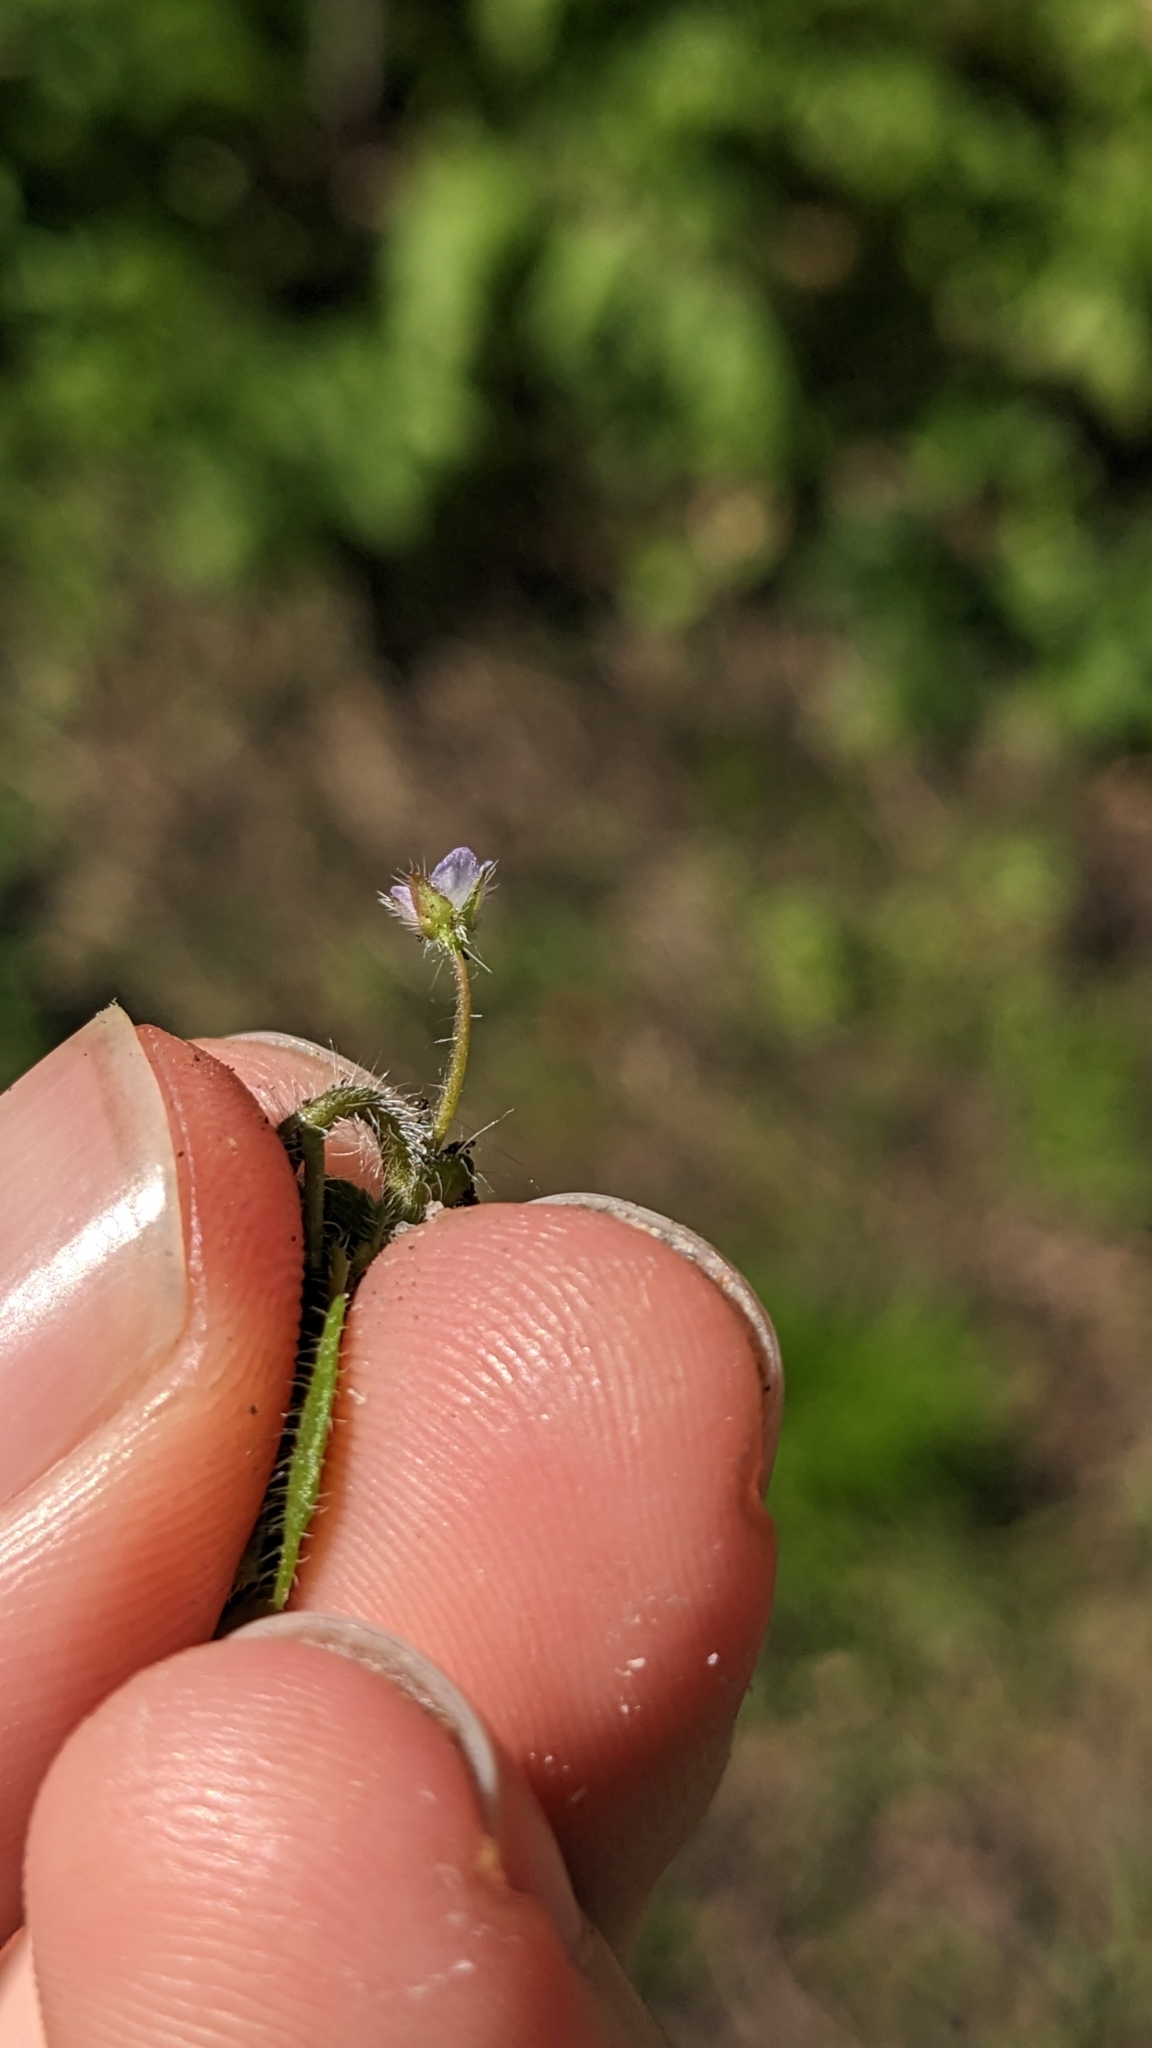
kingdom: Plantae
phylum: Tracheophyta
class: Magnoliopsida
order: Lamiales
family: Plantaginaceae
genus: Veronica
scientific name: Veronica sublobata
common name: False ivy-leaved speedwell
